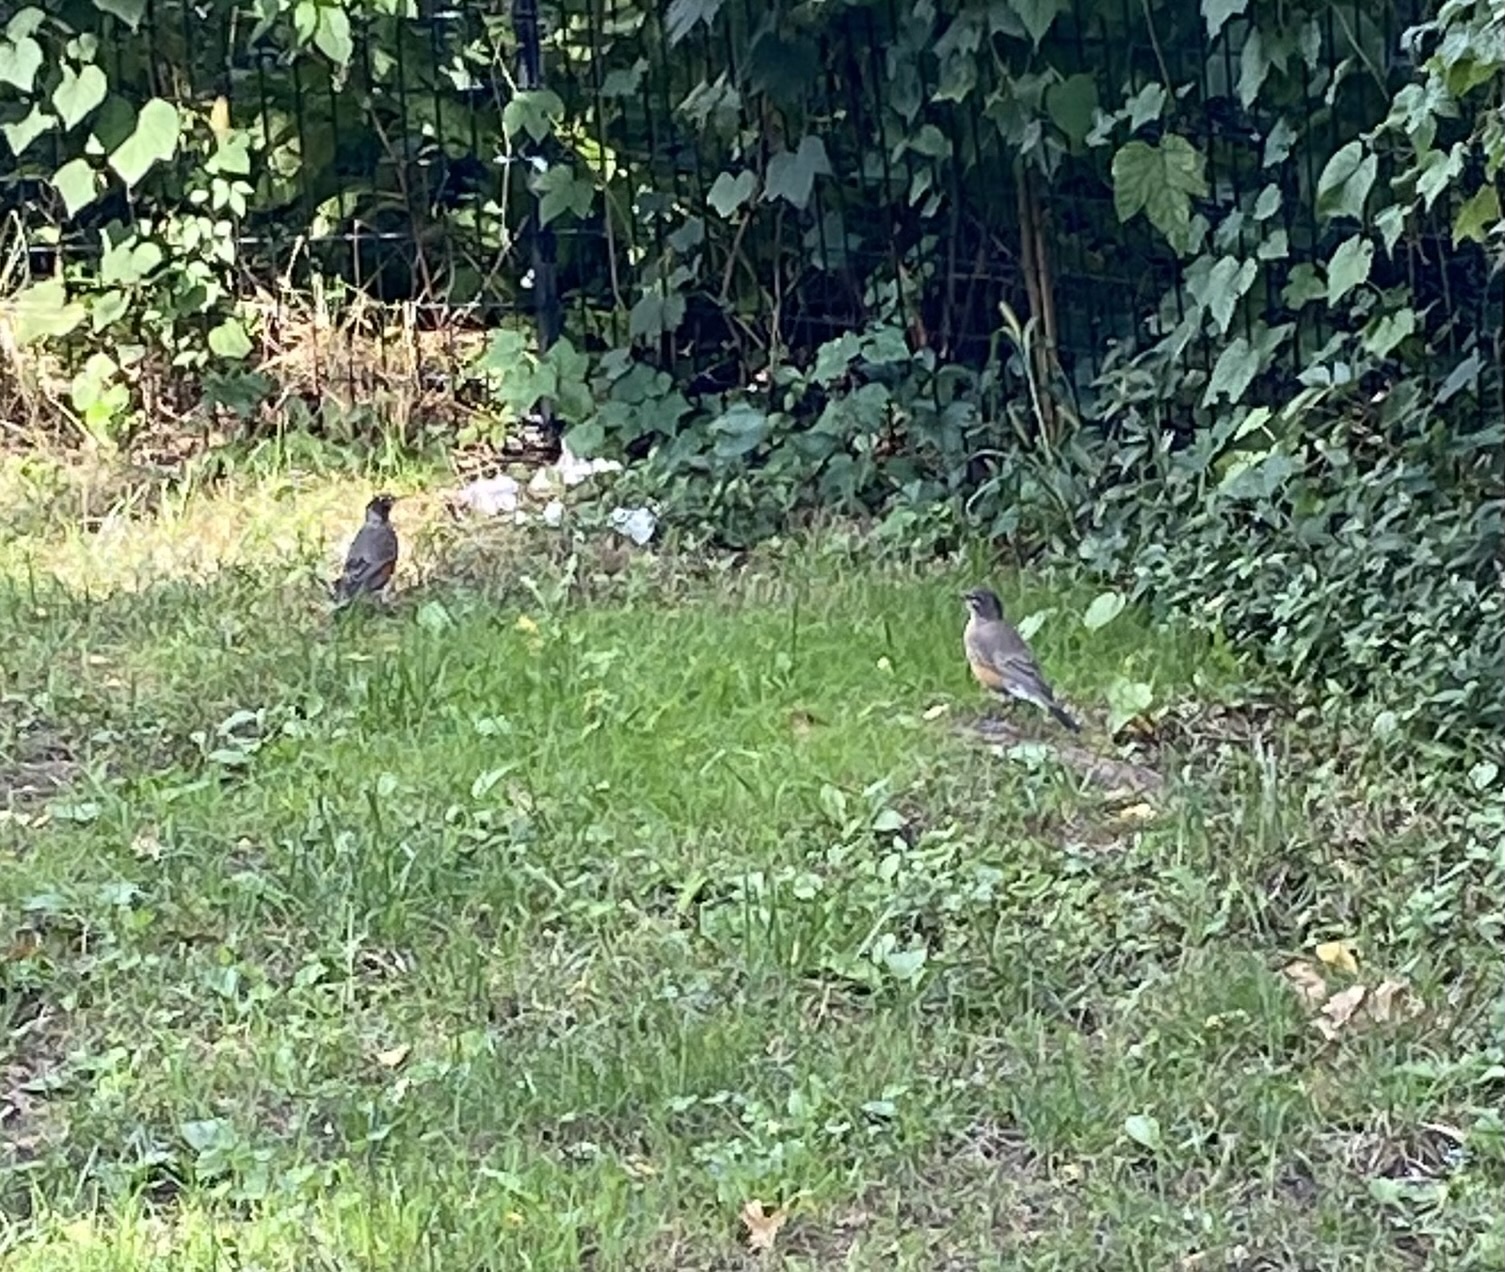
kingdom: Animalia
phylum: Chordata
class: Aves
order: Passeriformes
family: Turdidae
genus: Turdus
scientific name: Turdus migratorius
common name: American robin
